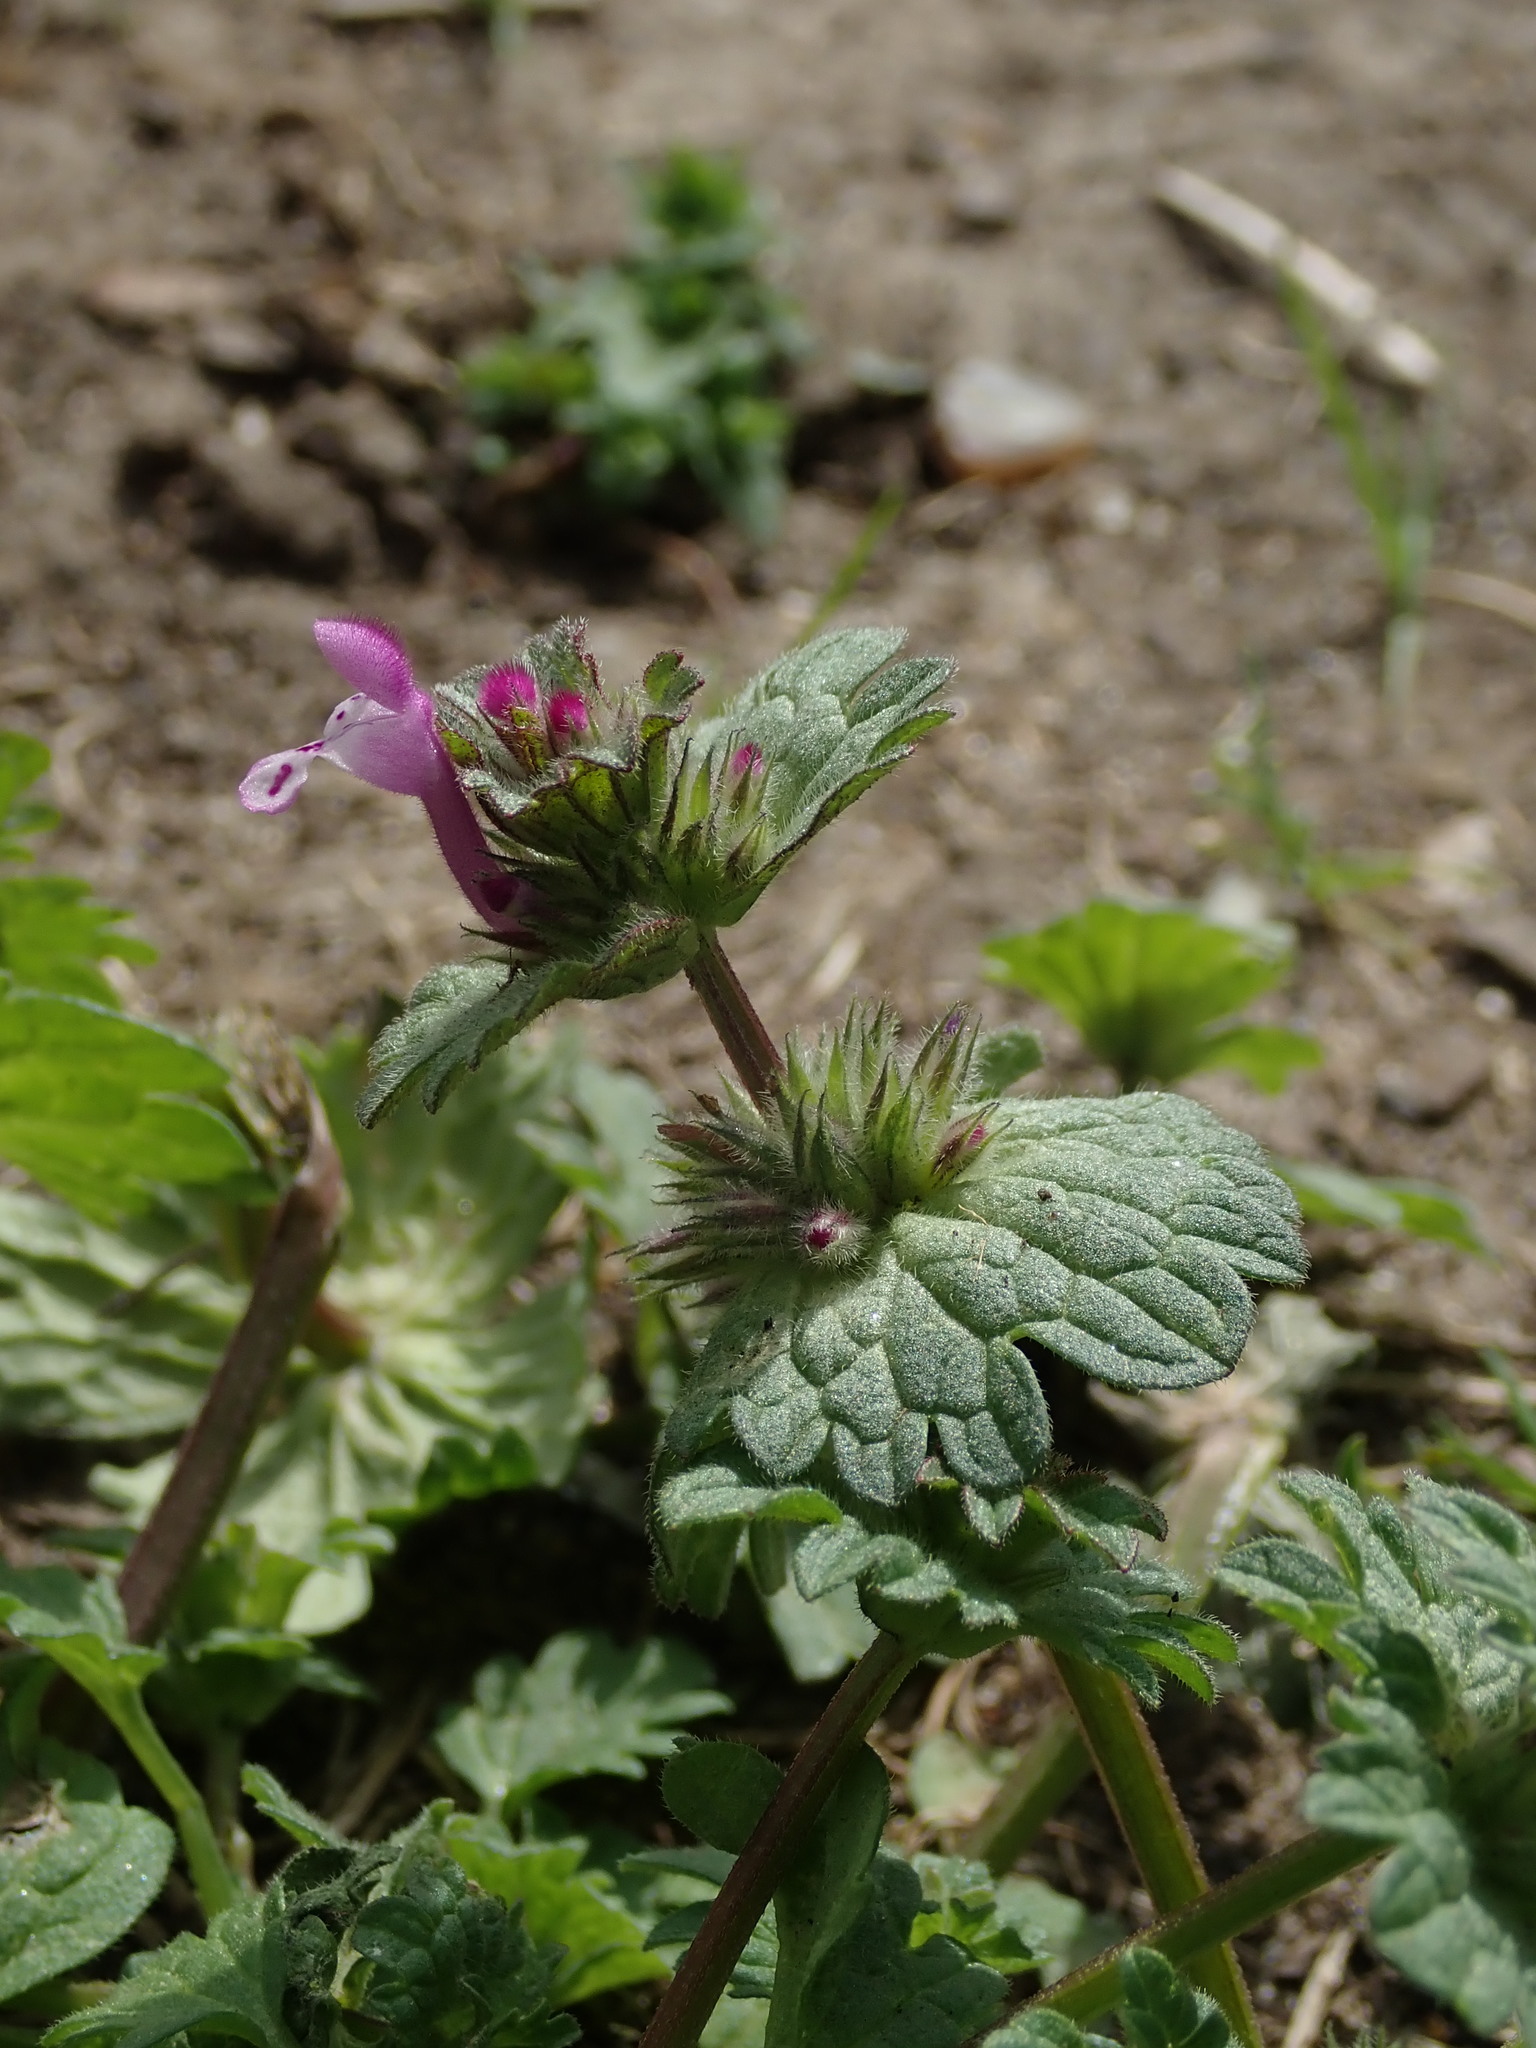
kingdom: Plantae
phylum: Tracheophyta
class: Magnoliopsida
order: Lamiales
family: Lamiaceae
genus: Lamium
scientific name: Lamium amplexicaule
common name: Henbit dead-nettle
